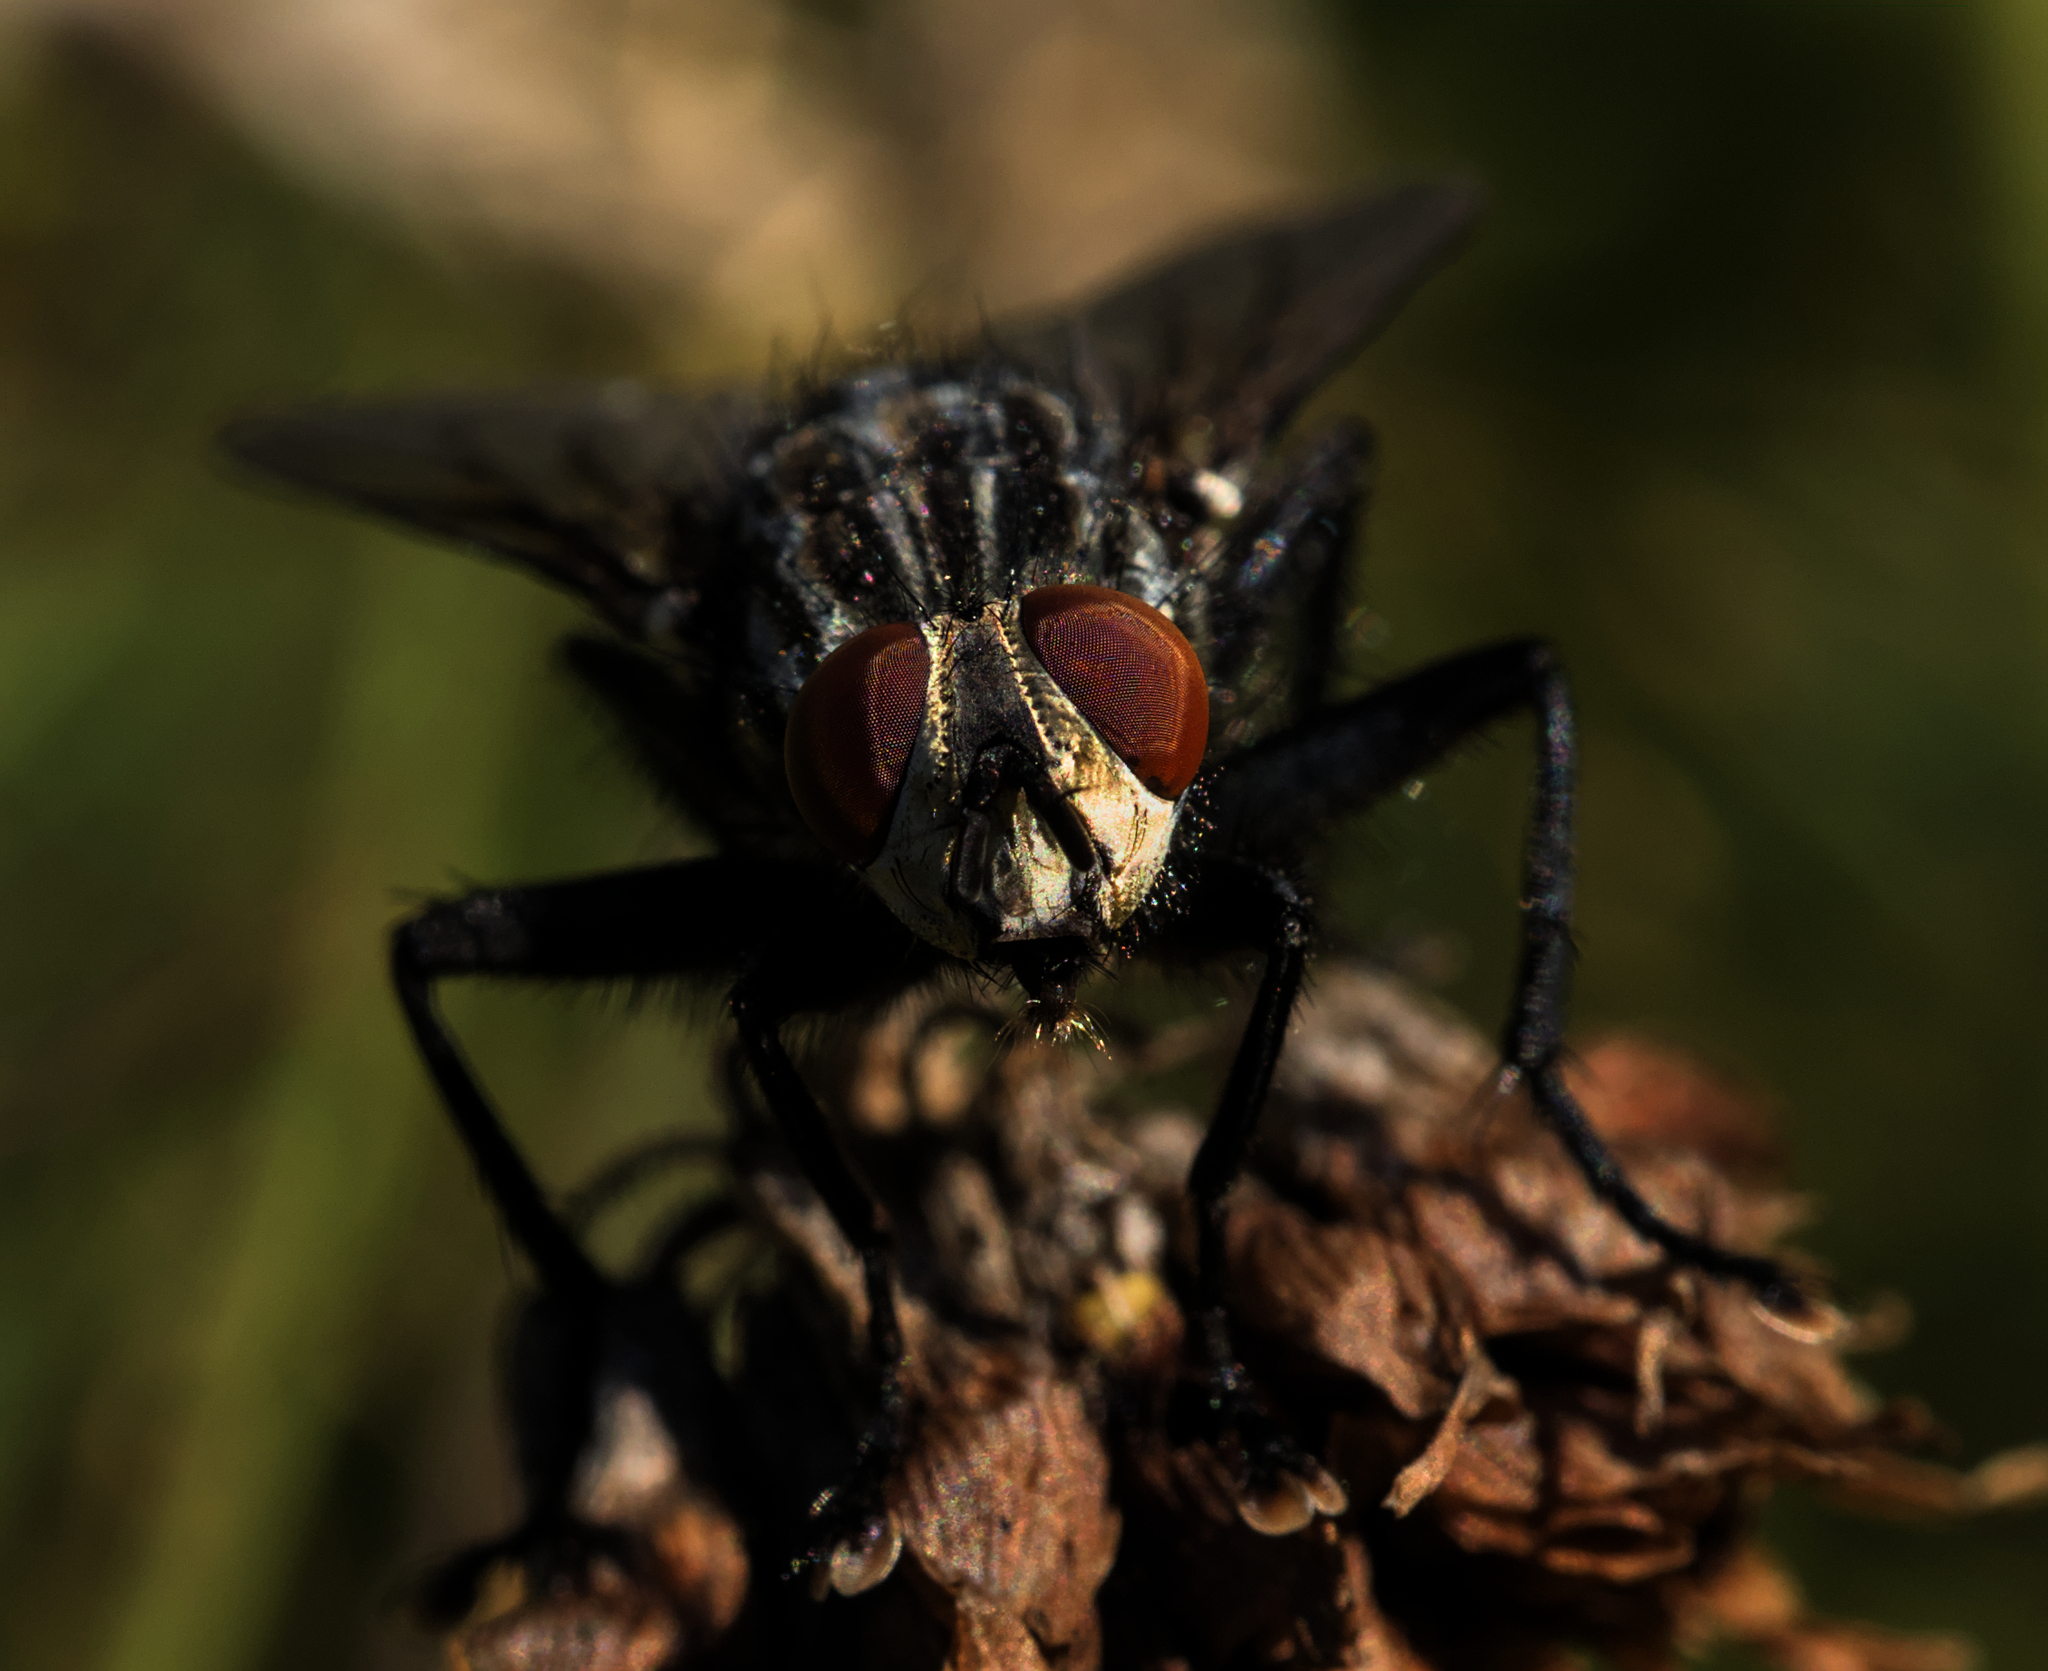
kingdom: Animalia
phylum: Arthropoda
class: Insecta
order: Diptera
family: Sarcophagidae
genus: Sarcophaga
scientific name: Sarcophaga
